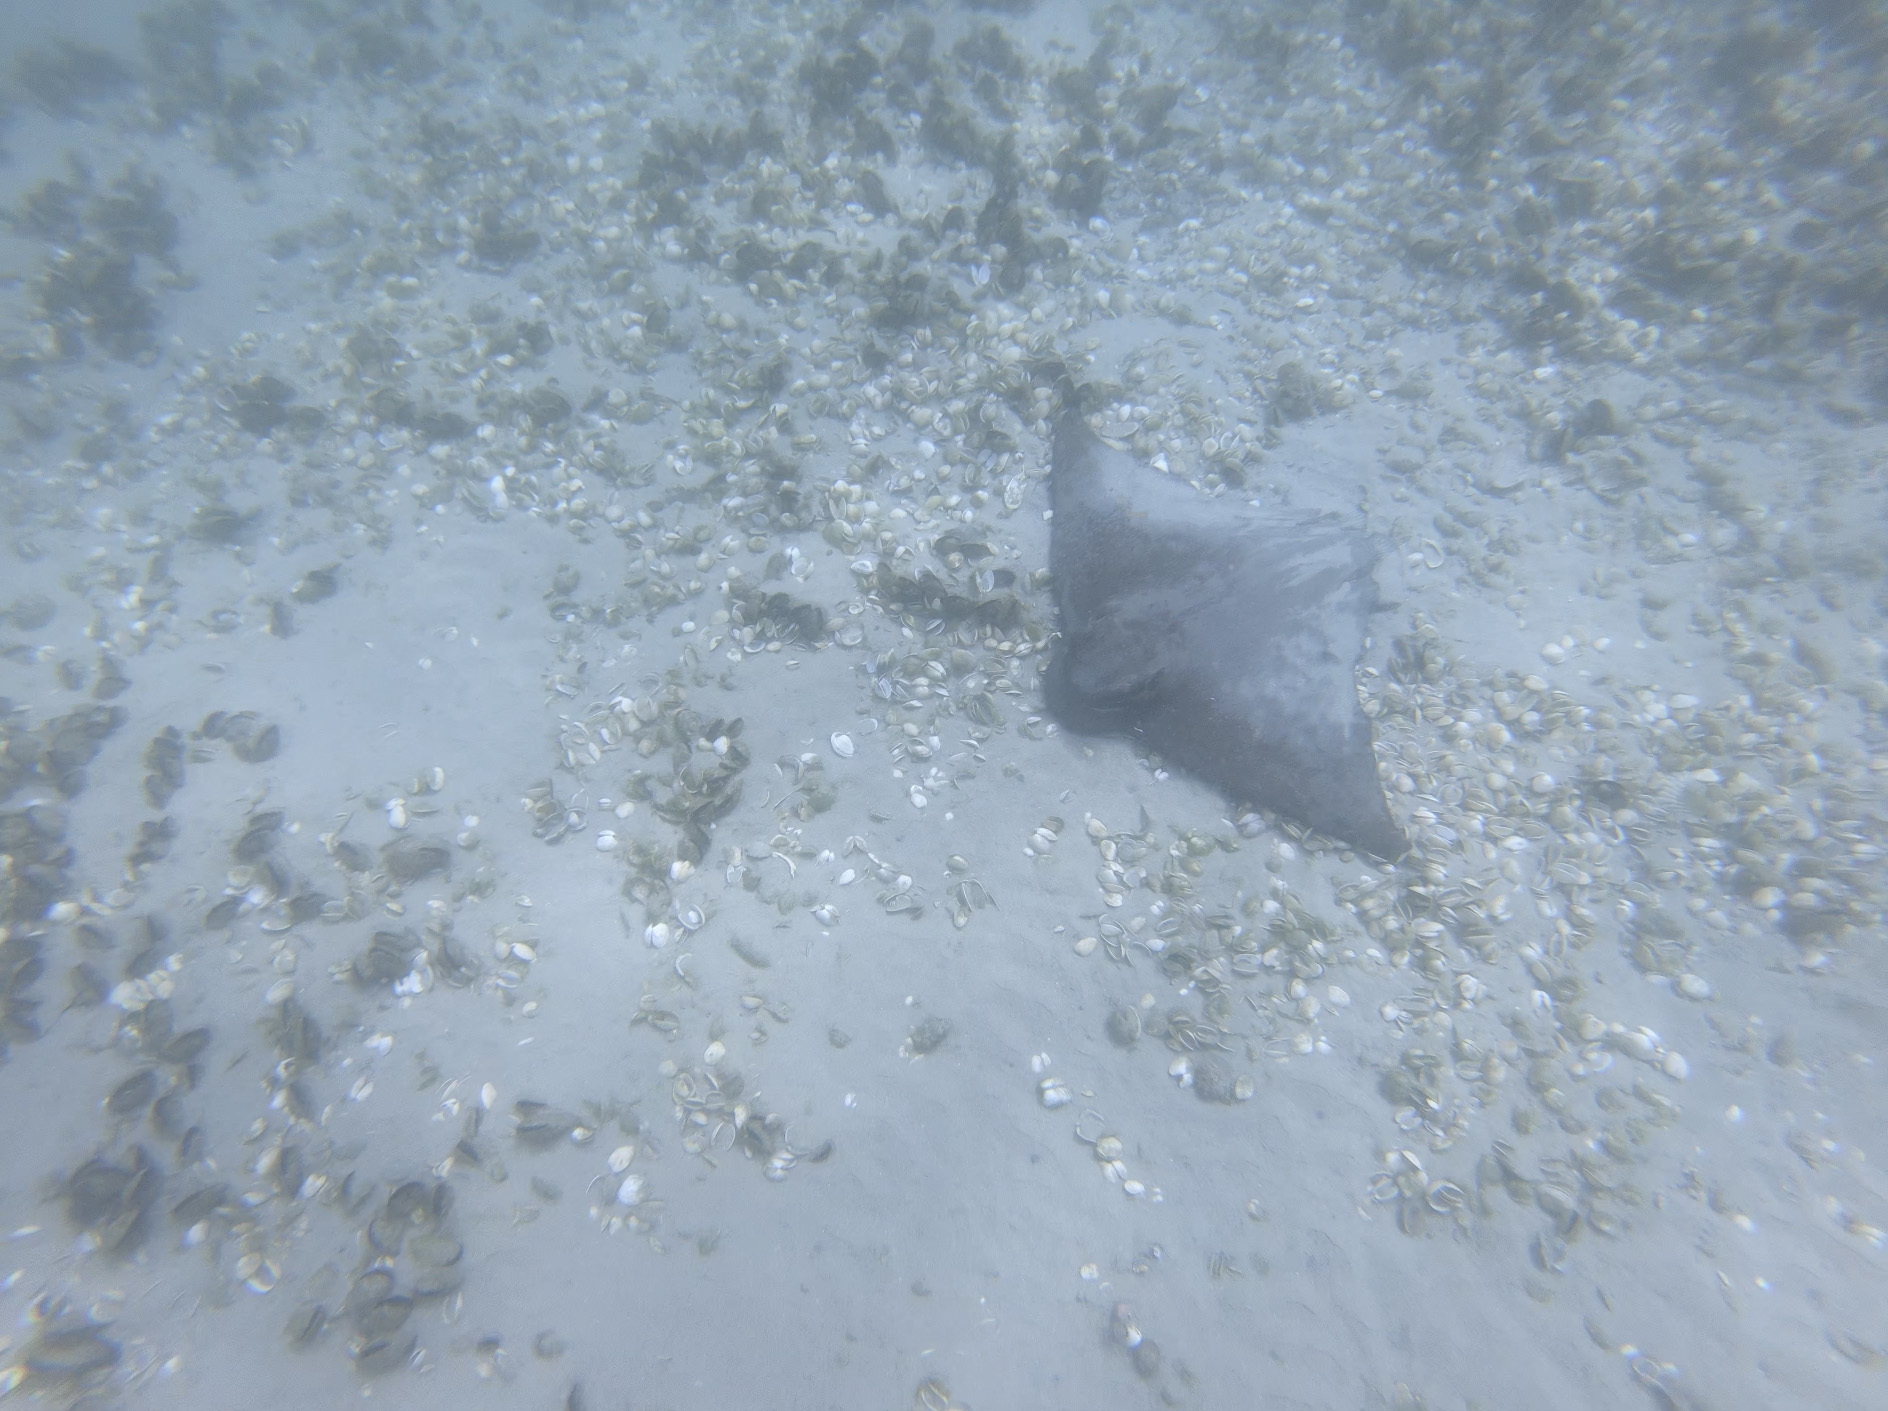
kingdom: Animalia
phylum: Chordata
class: Elasmobranchii
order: Myliobatiformes
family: Myliobatidae
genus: Myliobatis
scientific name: Myliobatis tenuicaudatus
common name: Eagle ray
